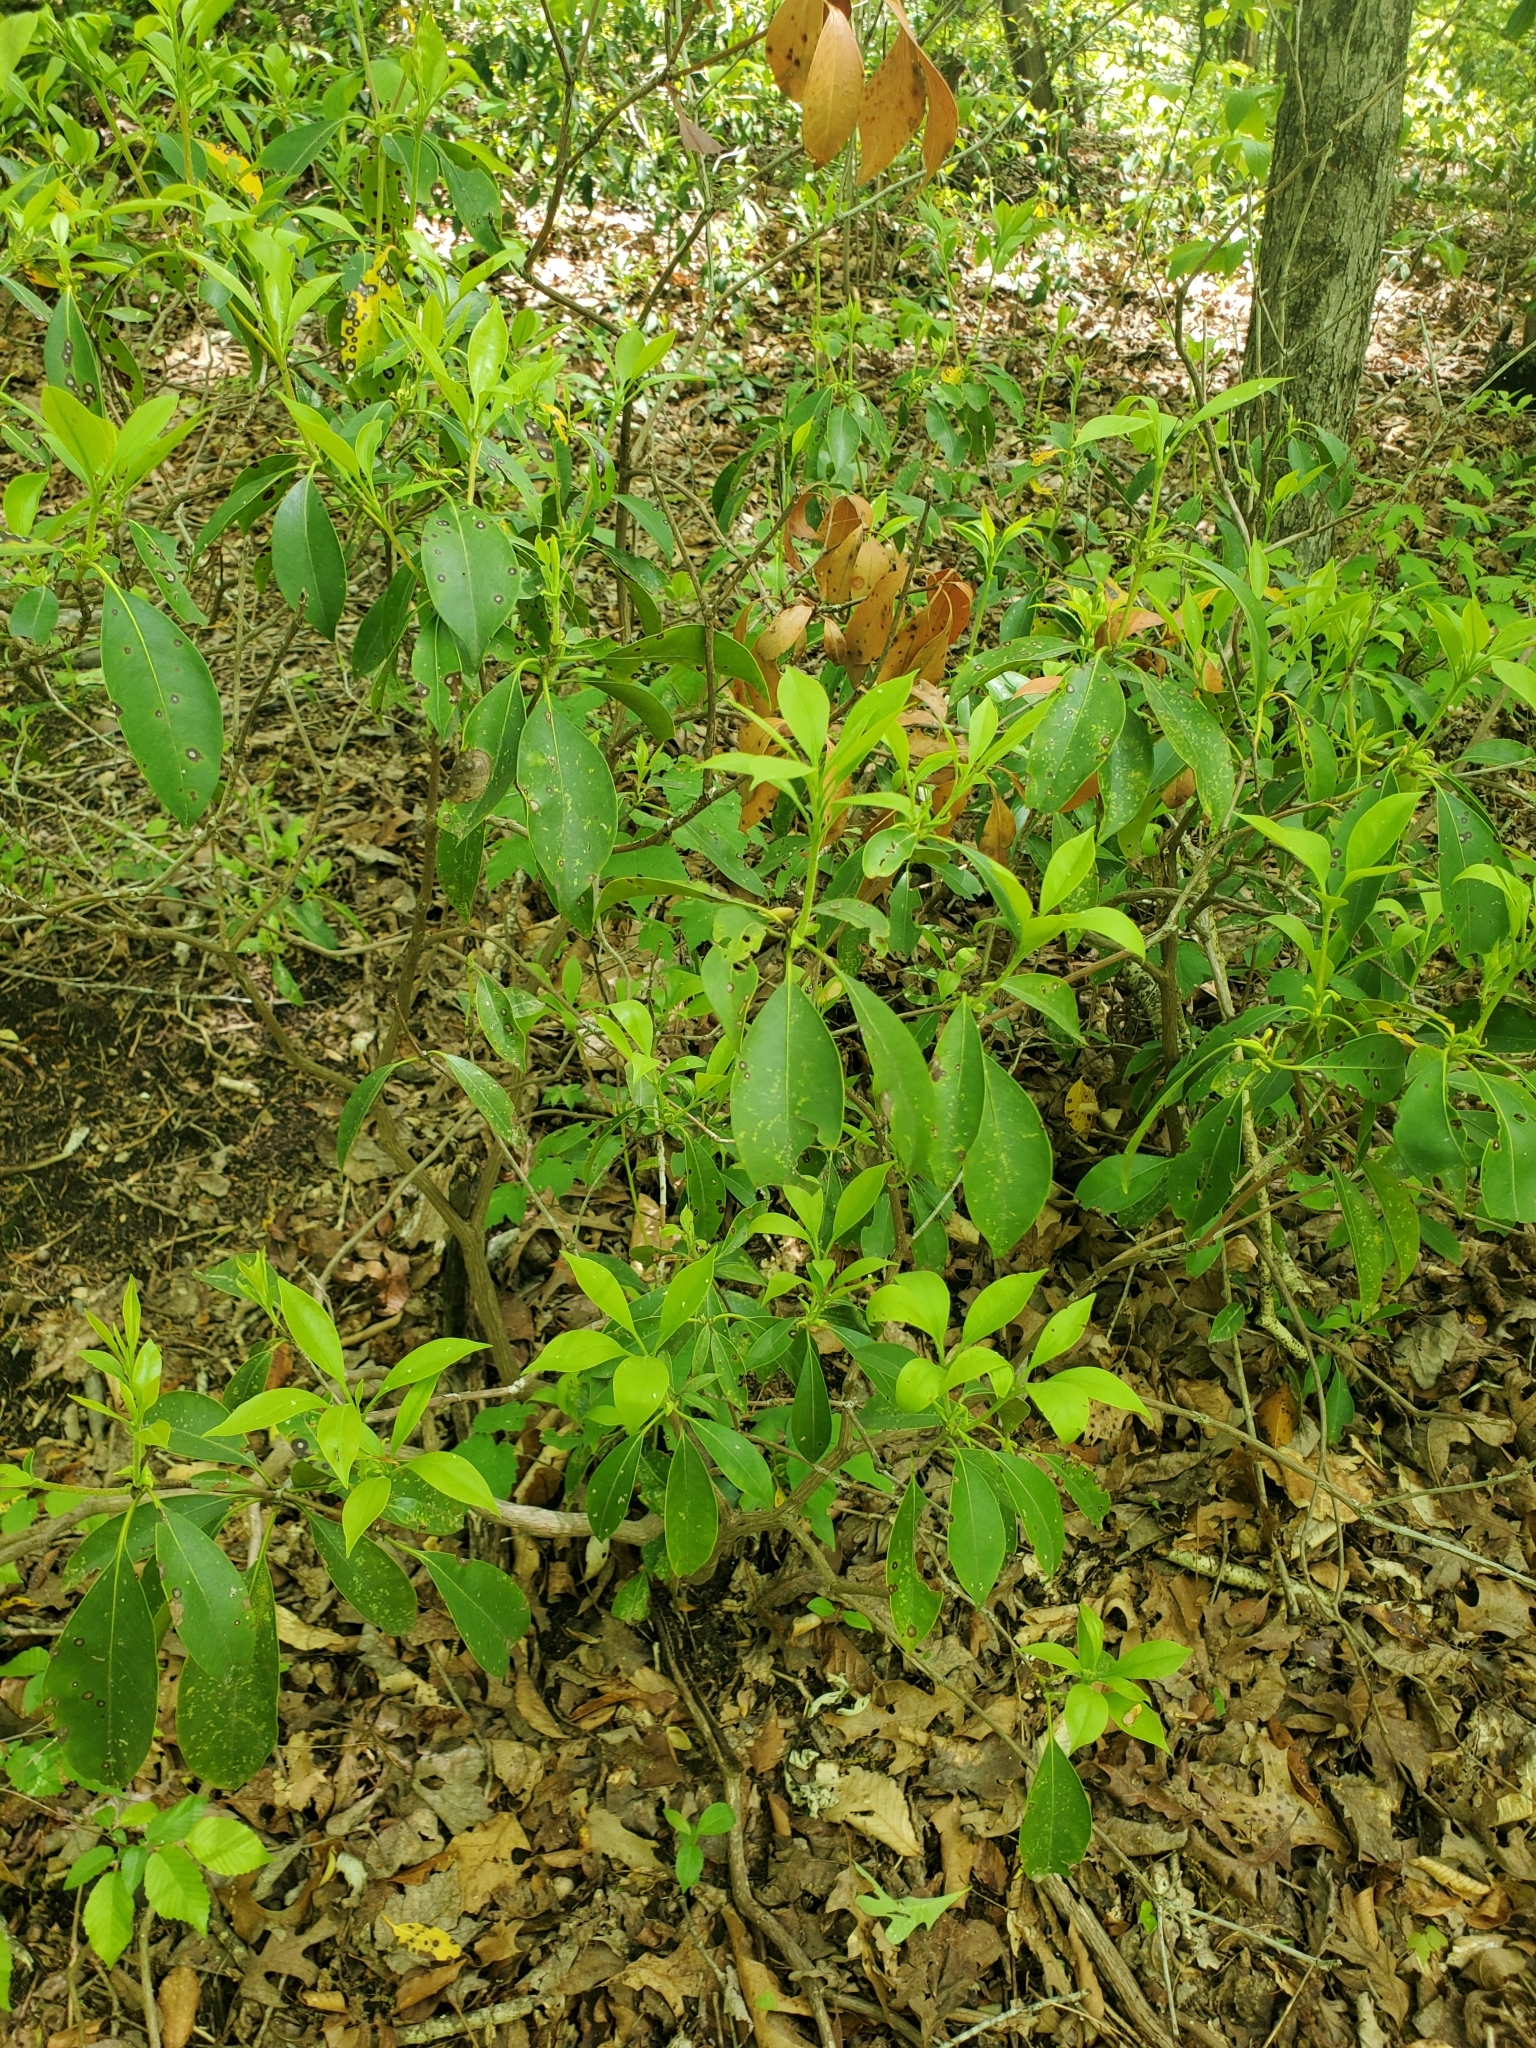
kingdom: Plantae
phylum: Tracheophyta
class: Magnoliopsida
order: Ericales
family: Ericaceae
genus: Kalmia
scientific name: Kalmia latifolia
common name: Mountain-laurel
